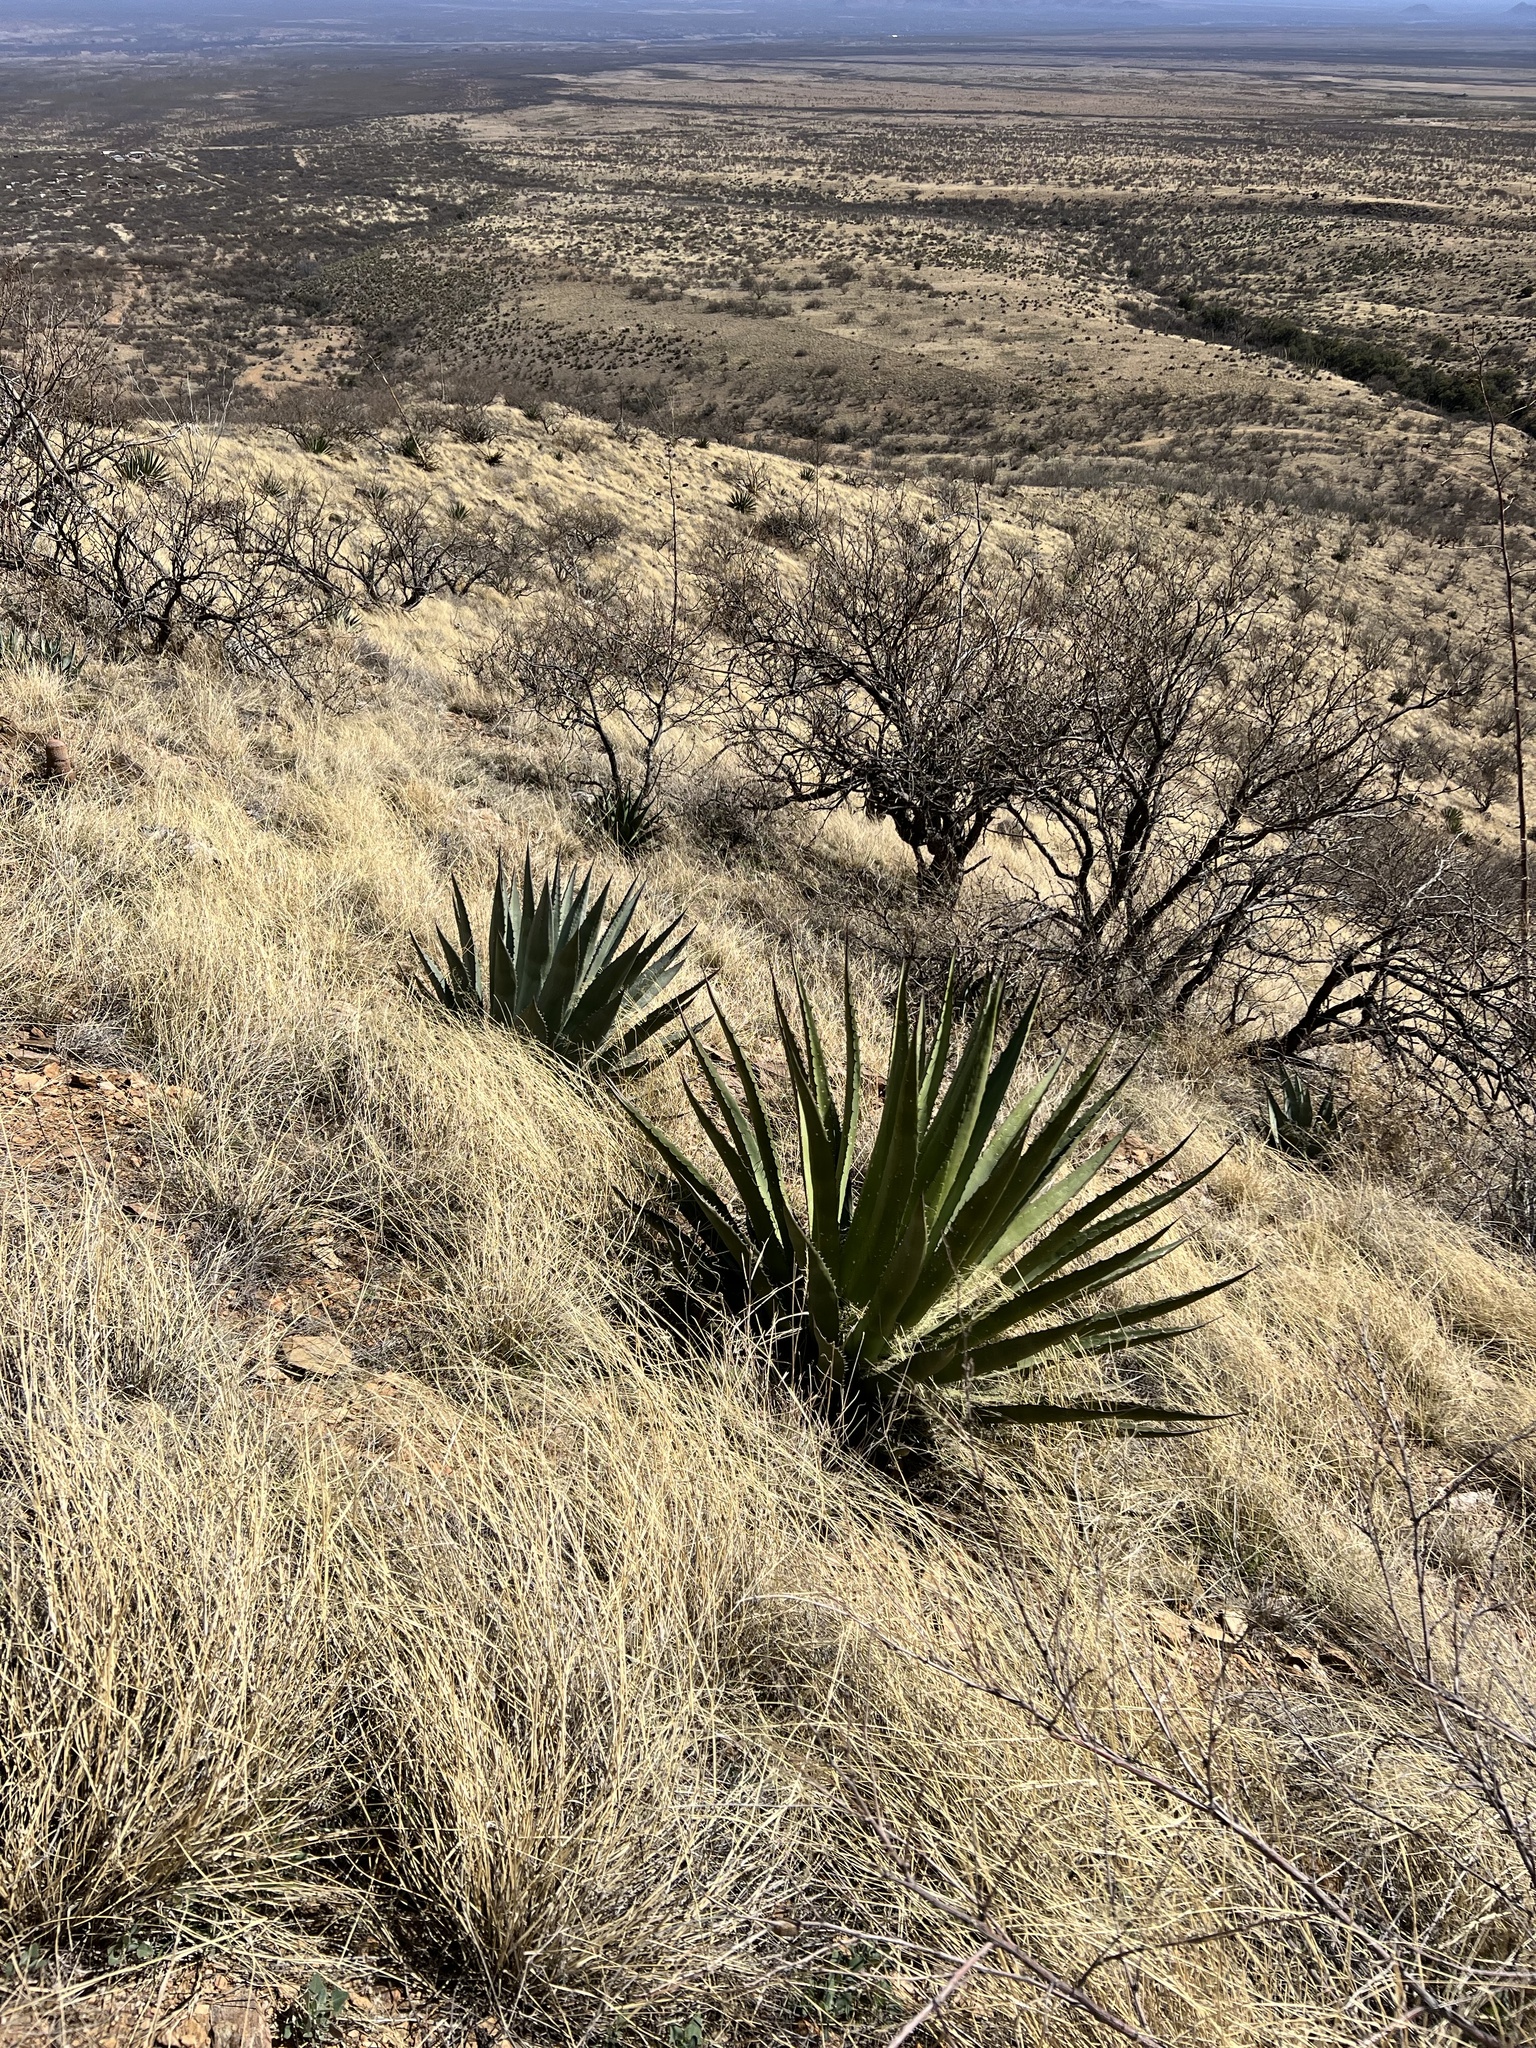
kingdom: Plantae
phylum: Tracheophyta
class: Liliopsida
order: Asparagales
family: Asparagaceae
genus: Agave
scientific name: Agave palmeri
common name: Palmer agave
